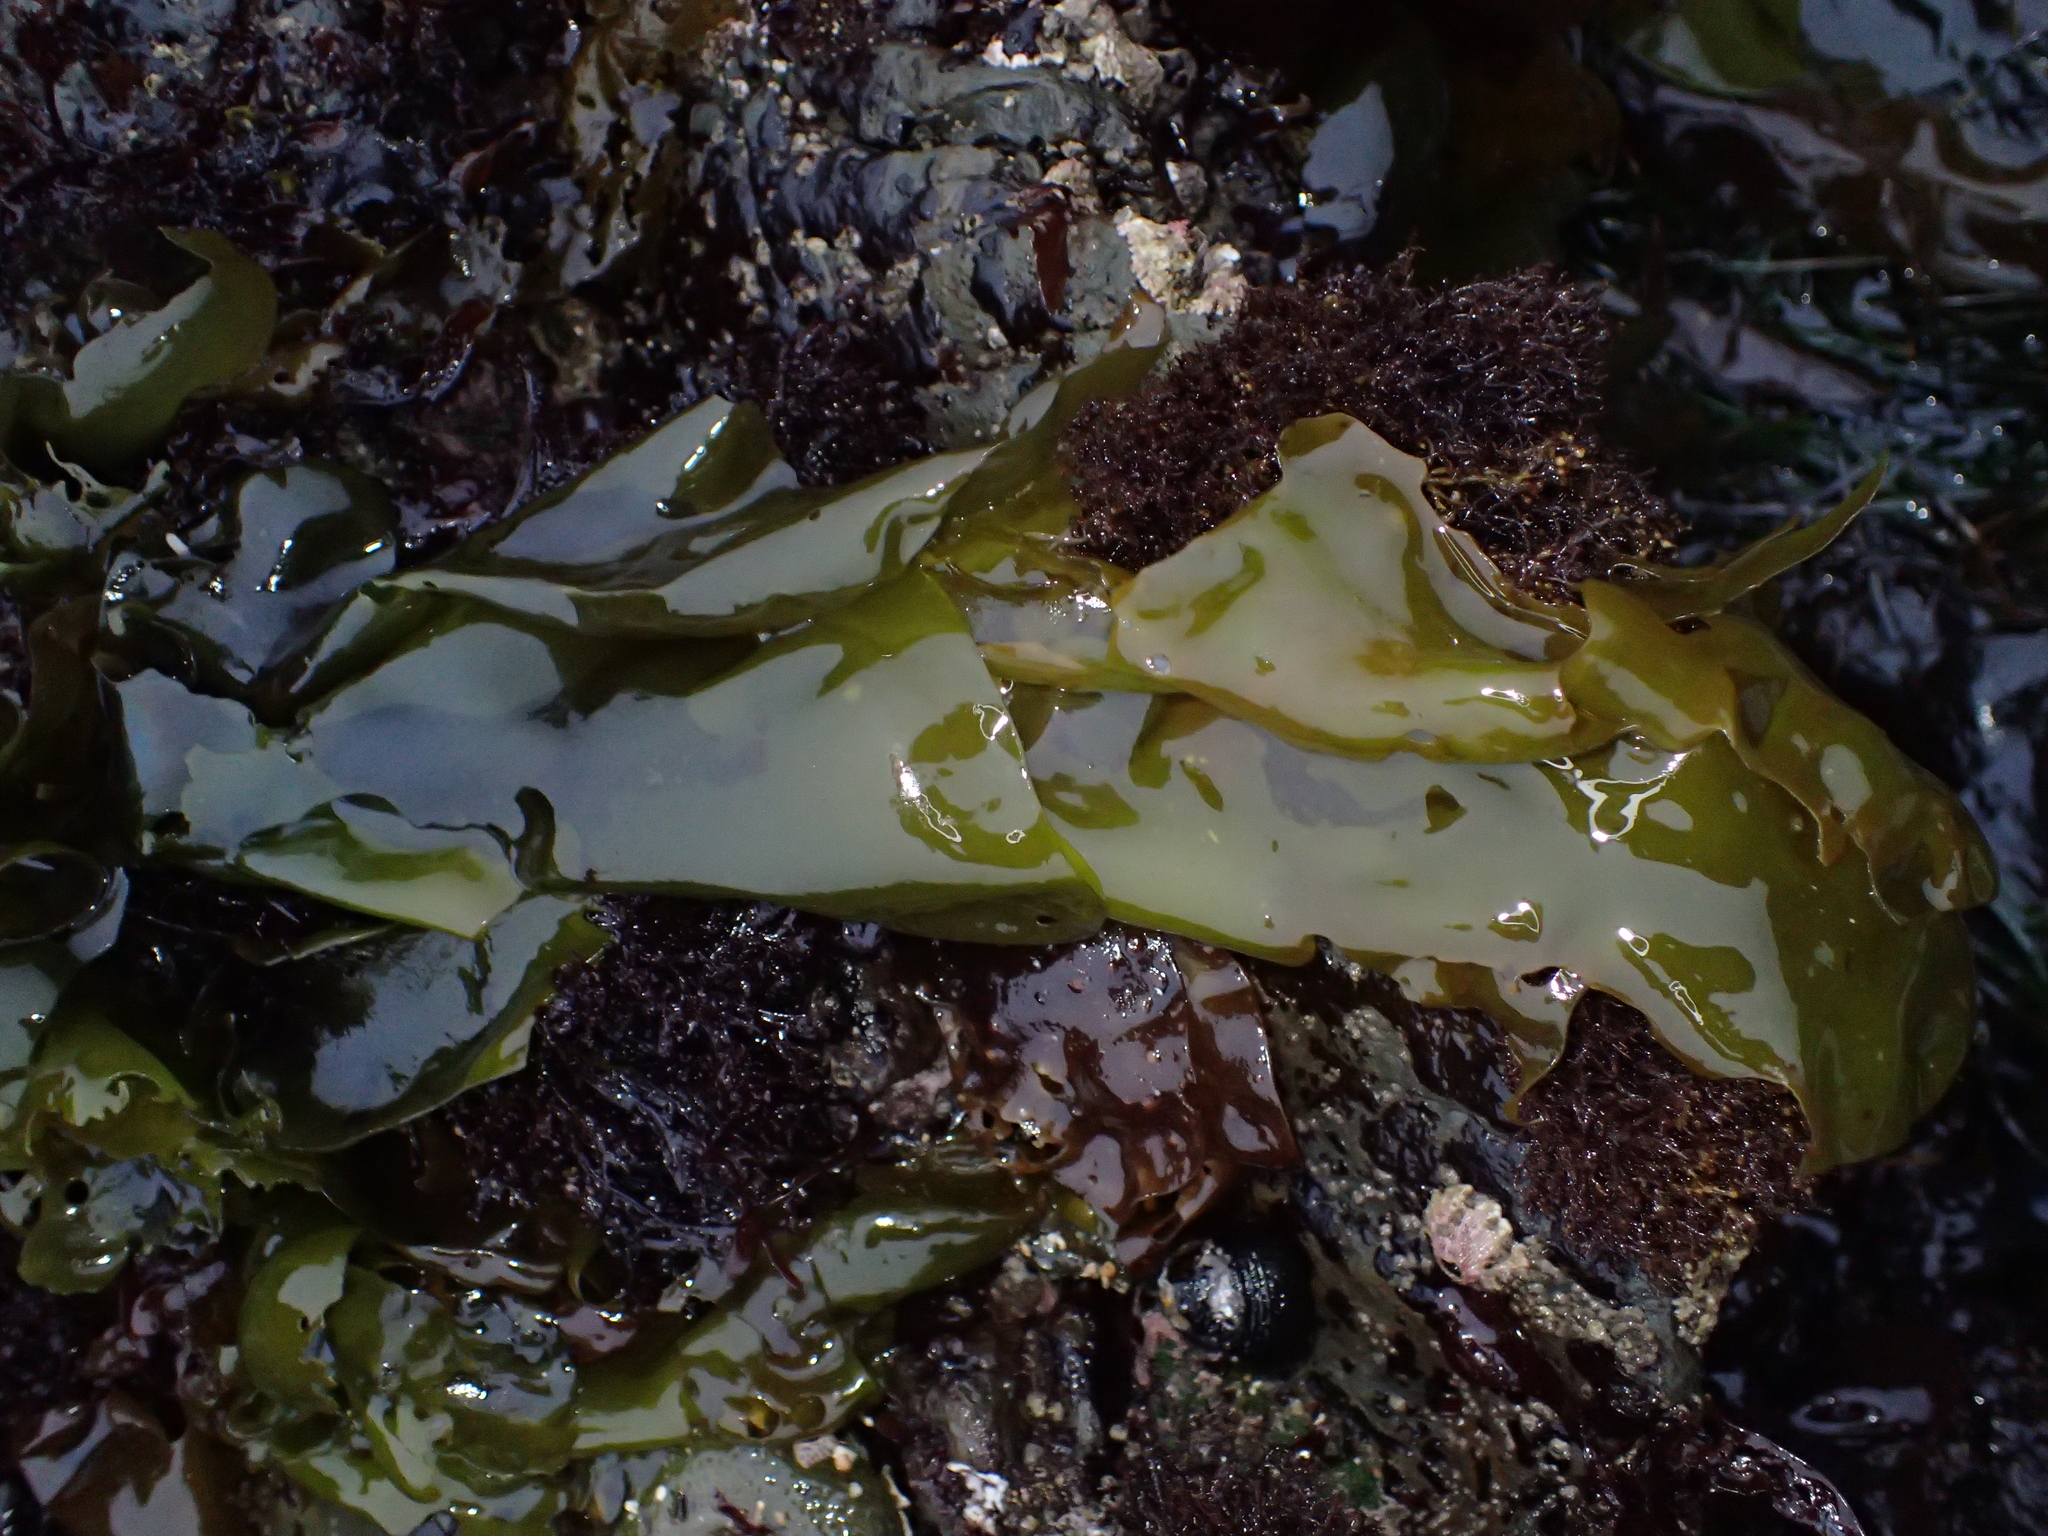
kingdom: Plantae
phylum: Rhodophyta
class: Florideophyceae
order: Gigartinales
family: Gigartinaceae
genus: Mazzaella
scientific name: Mazzaella flaccida
